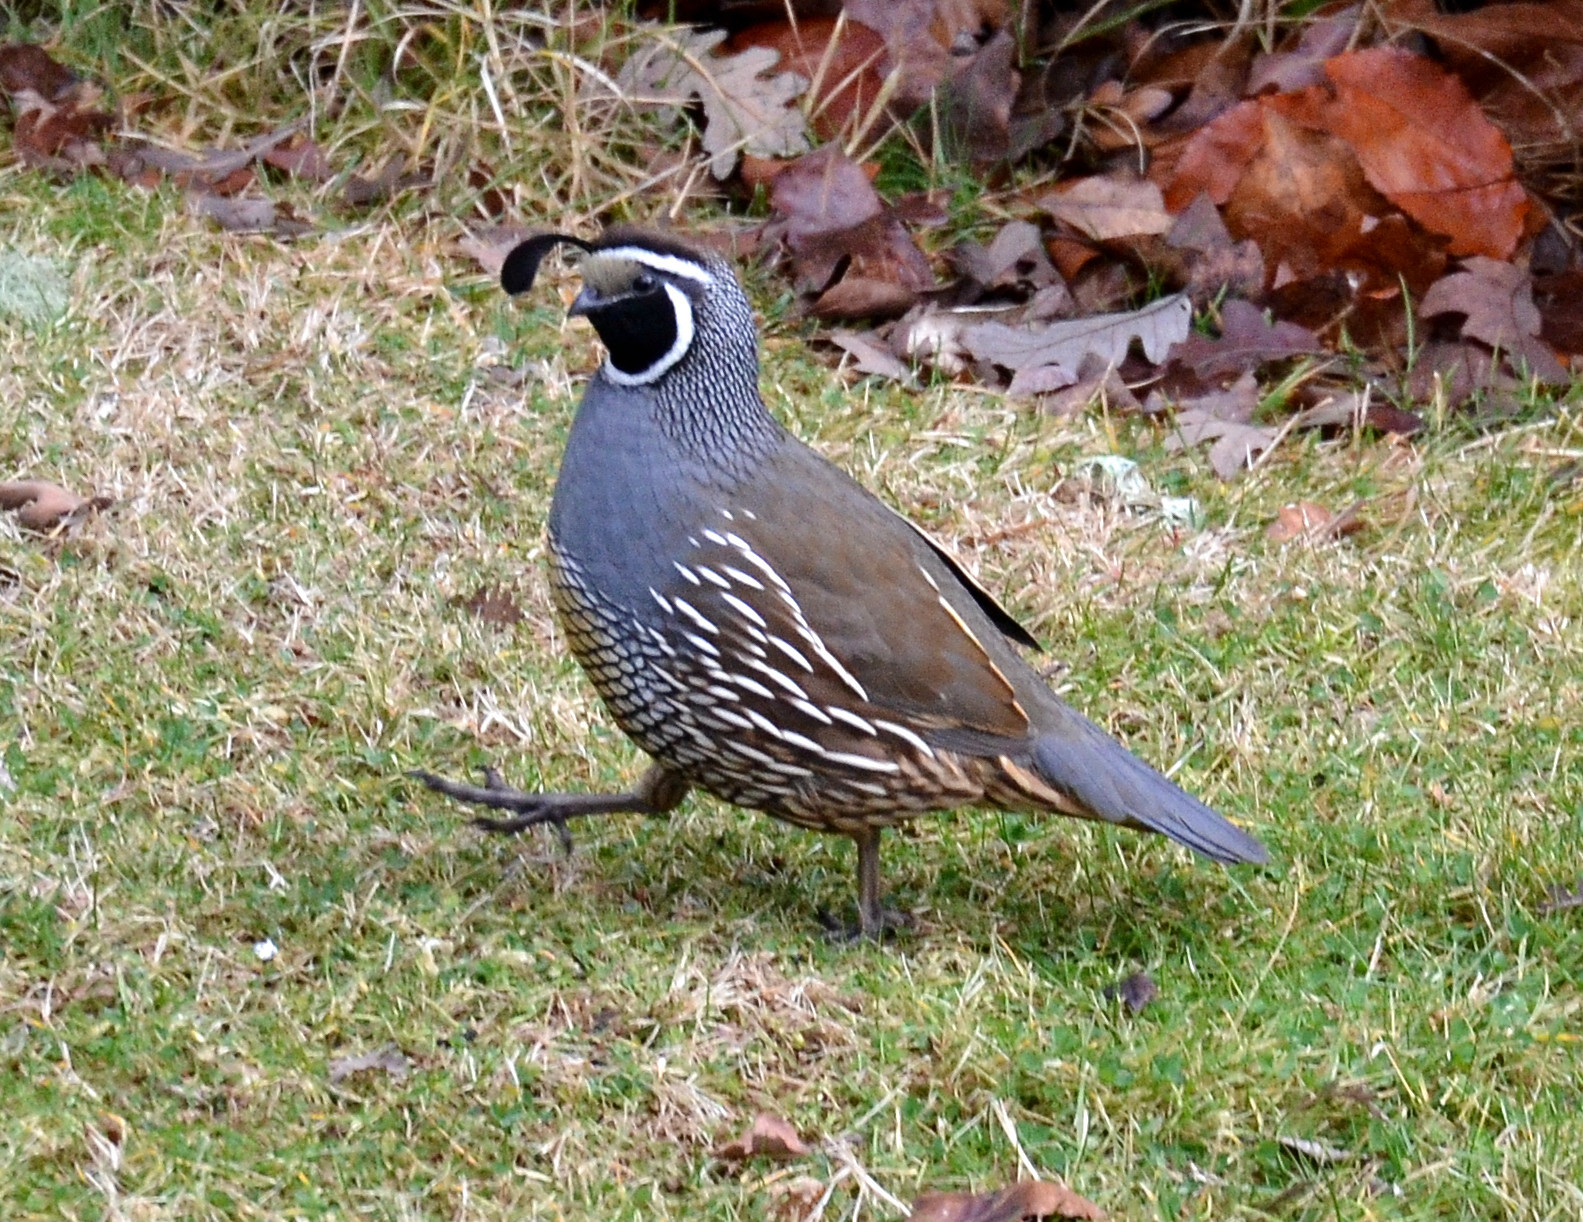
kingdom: Animalia
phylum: Chordata
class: Aves
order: Galliformes
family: Odontophoridae
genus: Callipepla
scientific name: Callipepla californica
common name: California quail
